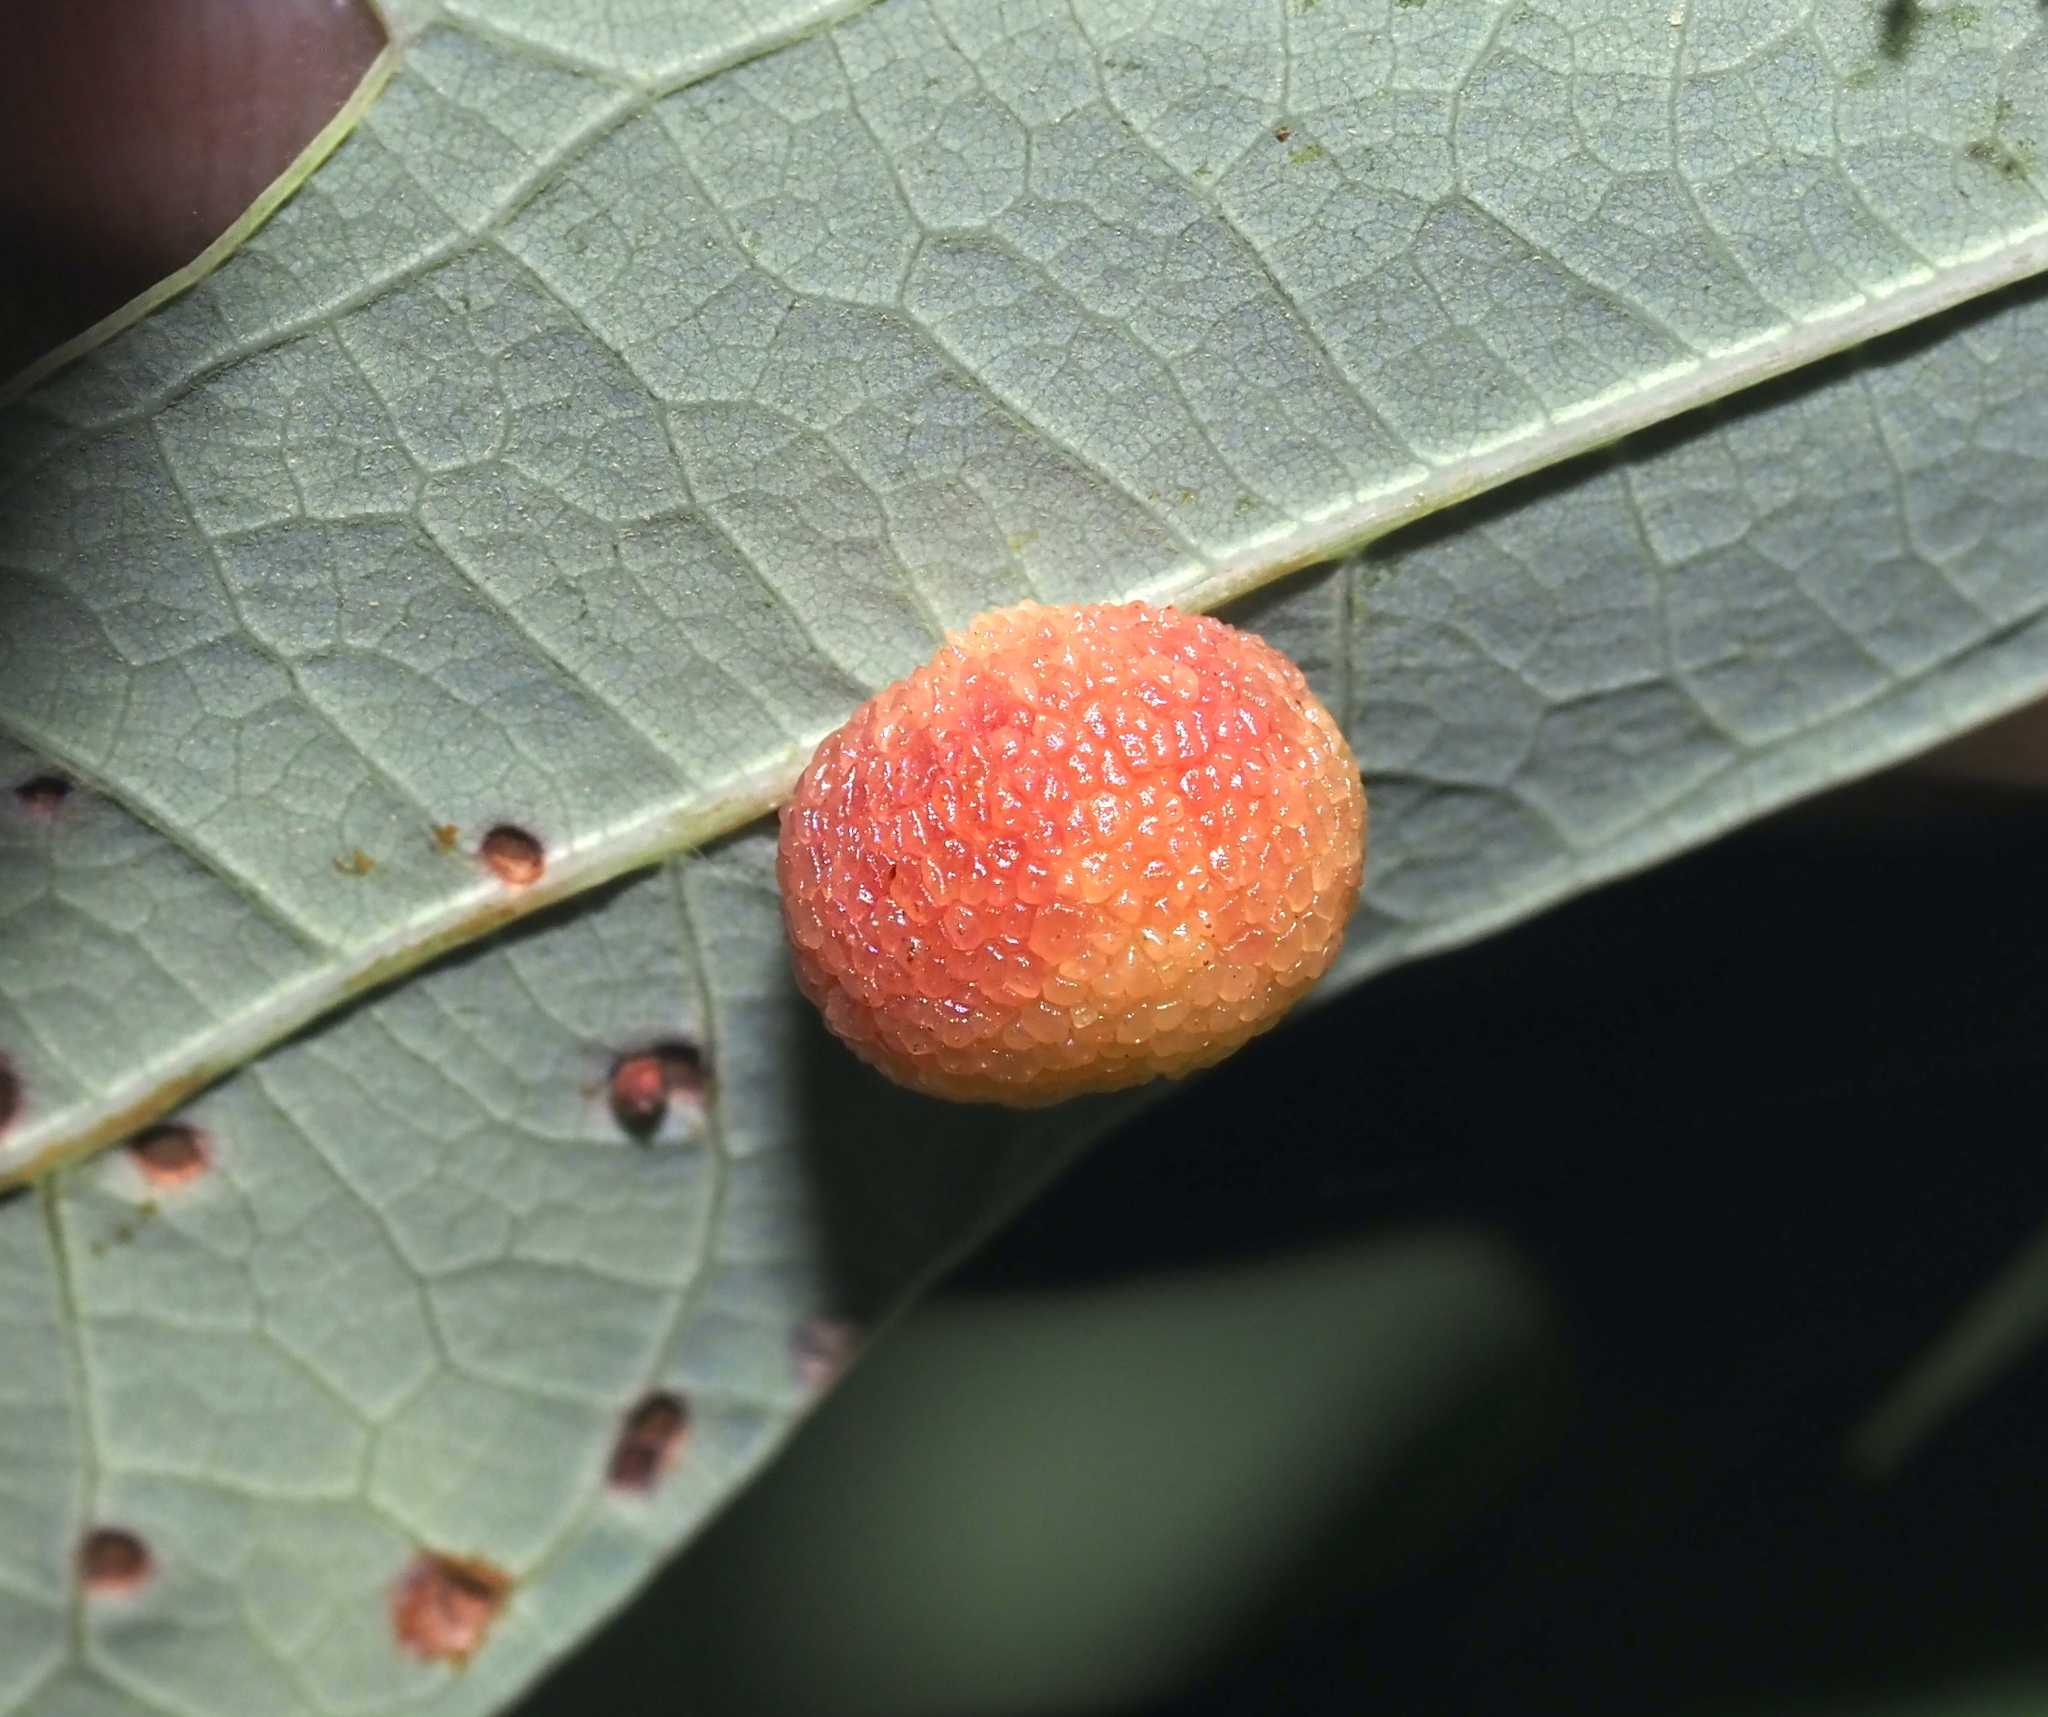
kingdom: Animalia
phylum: Arthropoda
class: Insecta
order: Hymenoptera
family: Cynipidae
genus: Acraspis
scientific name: Acraspis
